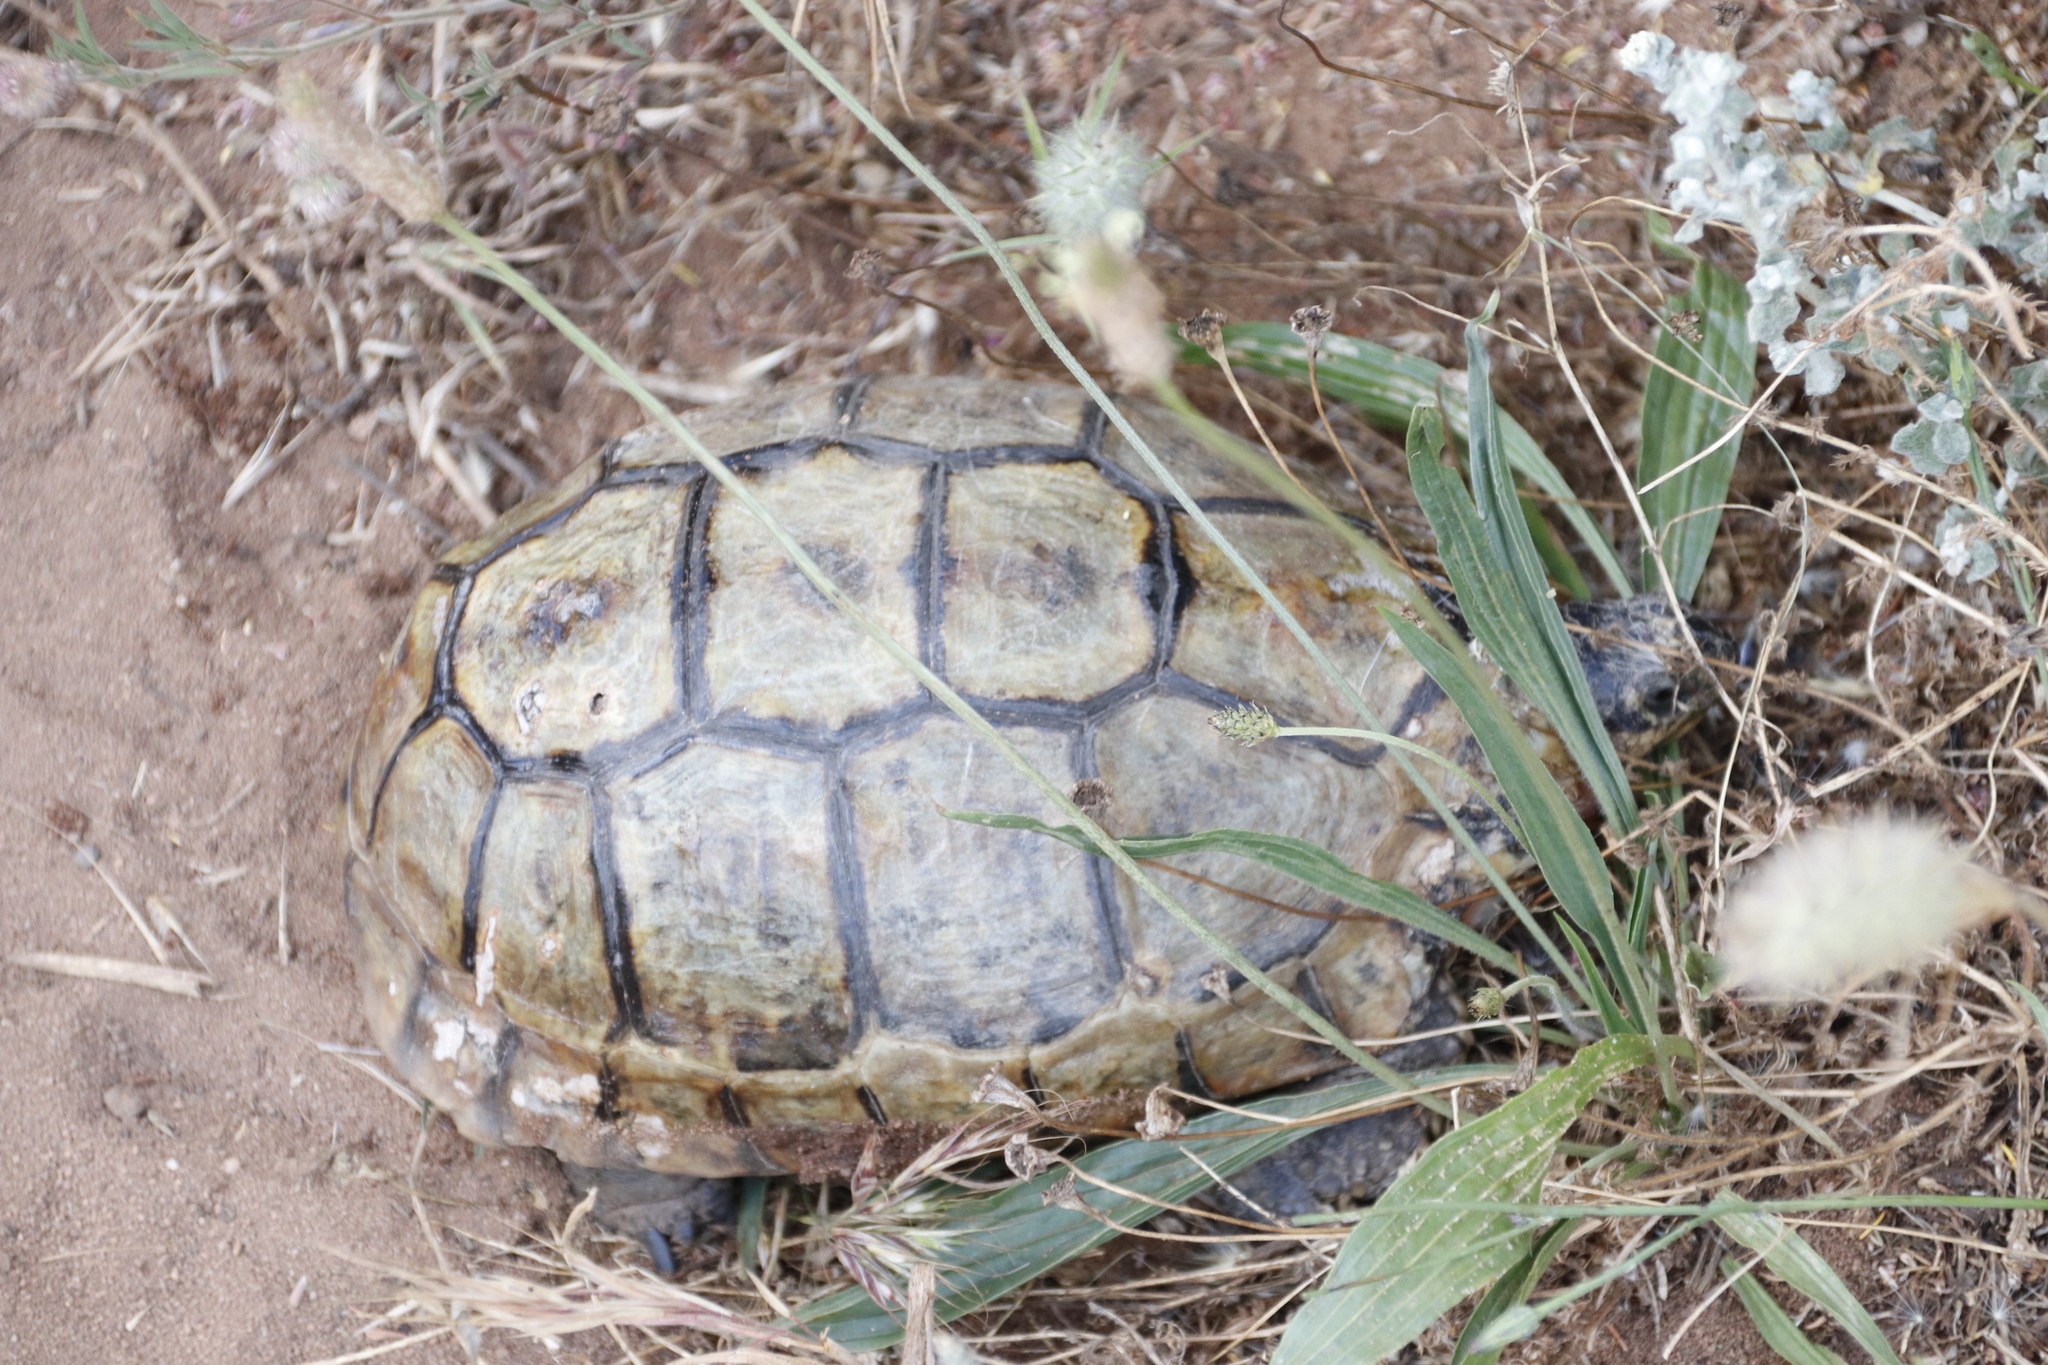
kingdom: Animalia
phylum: Chordata
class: Testudines
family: Testudinidae
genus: Chersina
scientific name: Chersina angulata
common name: South african bowsprit tortoise
